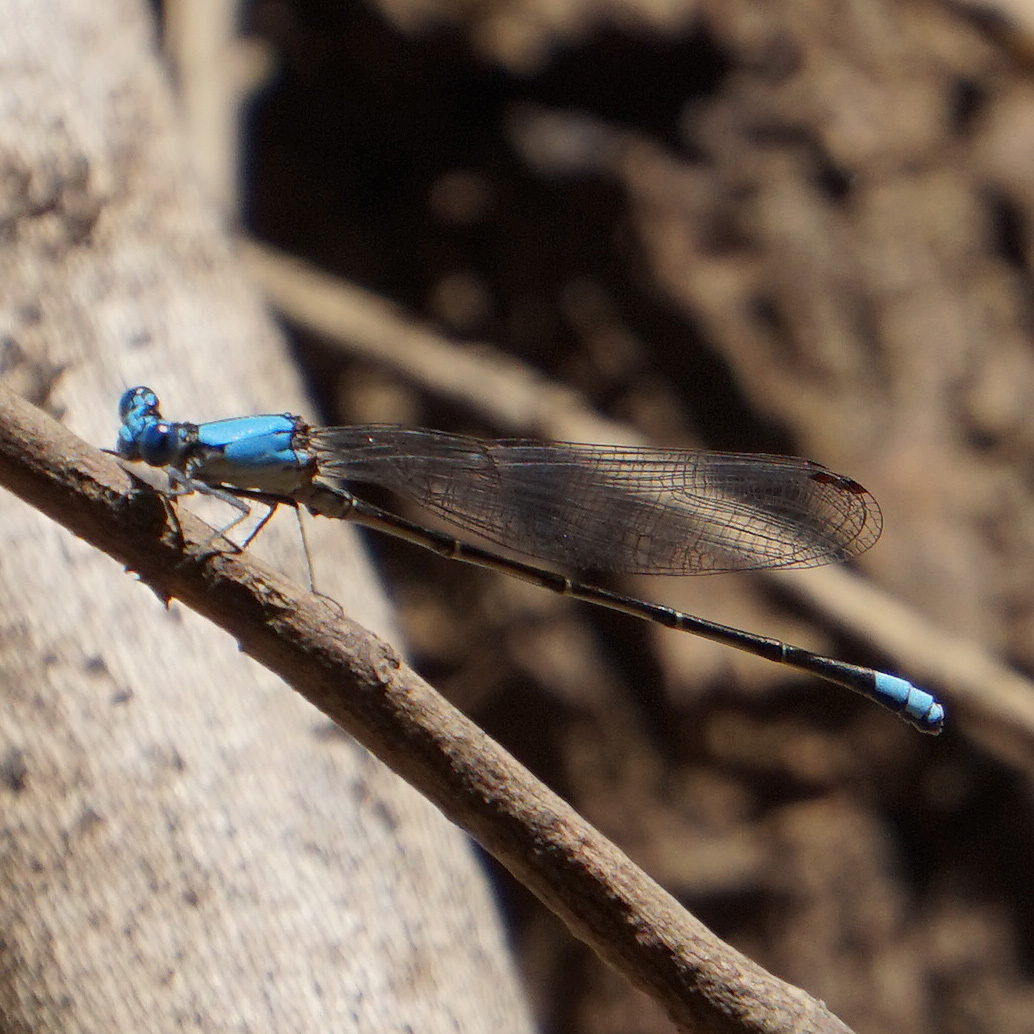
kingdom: Animalia
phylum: Arthropoda
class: Insecta
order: Odonata
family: Coenagrionidae
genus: Argia
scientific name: Argia apicalis
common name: Blue-fronted dancer
